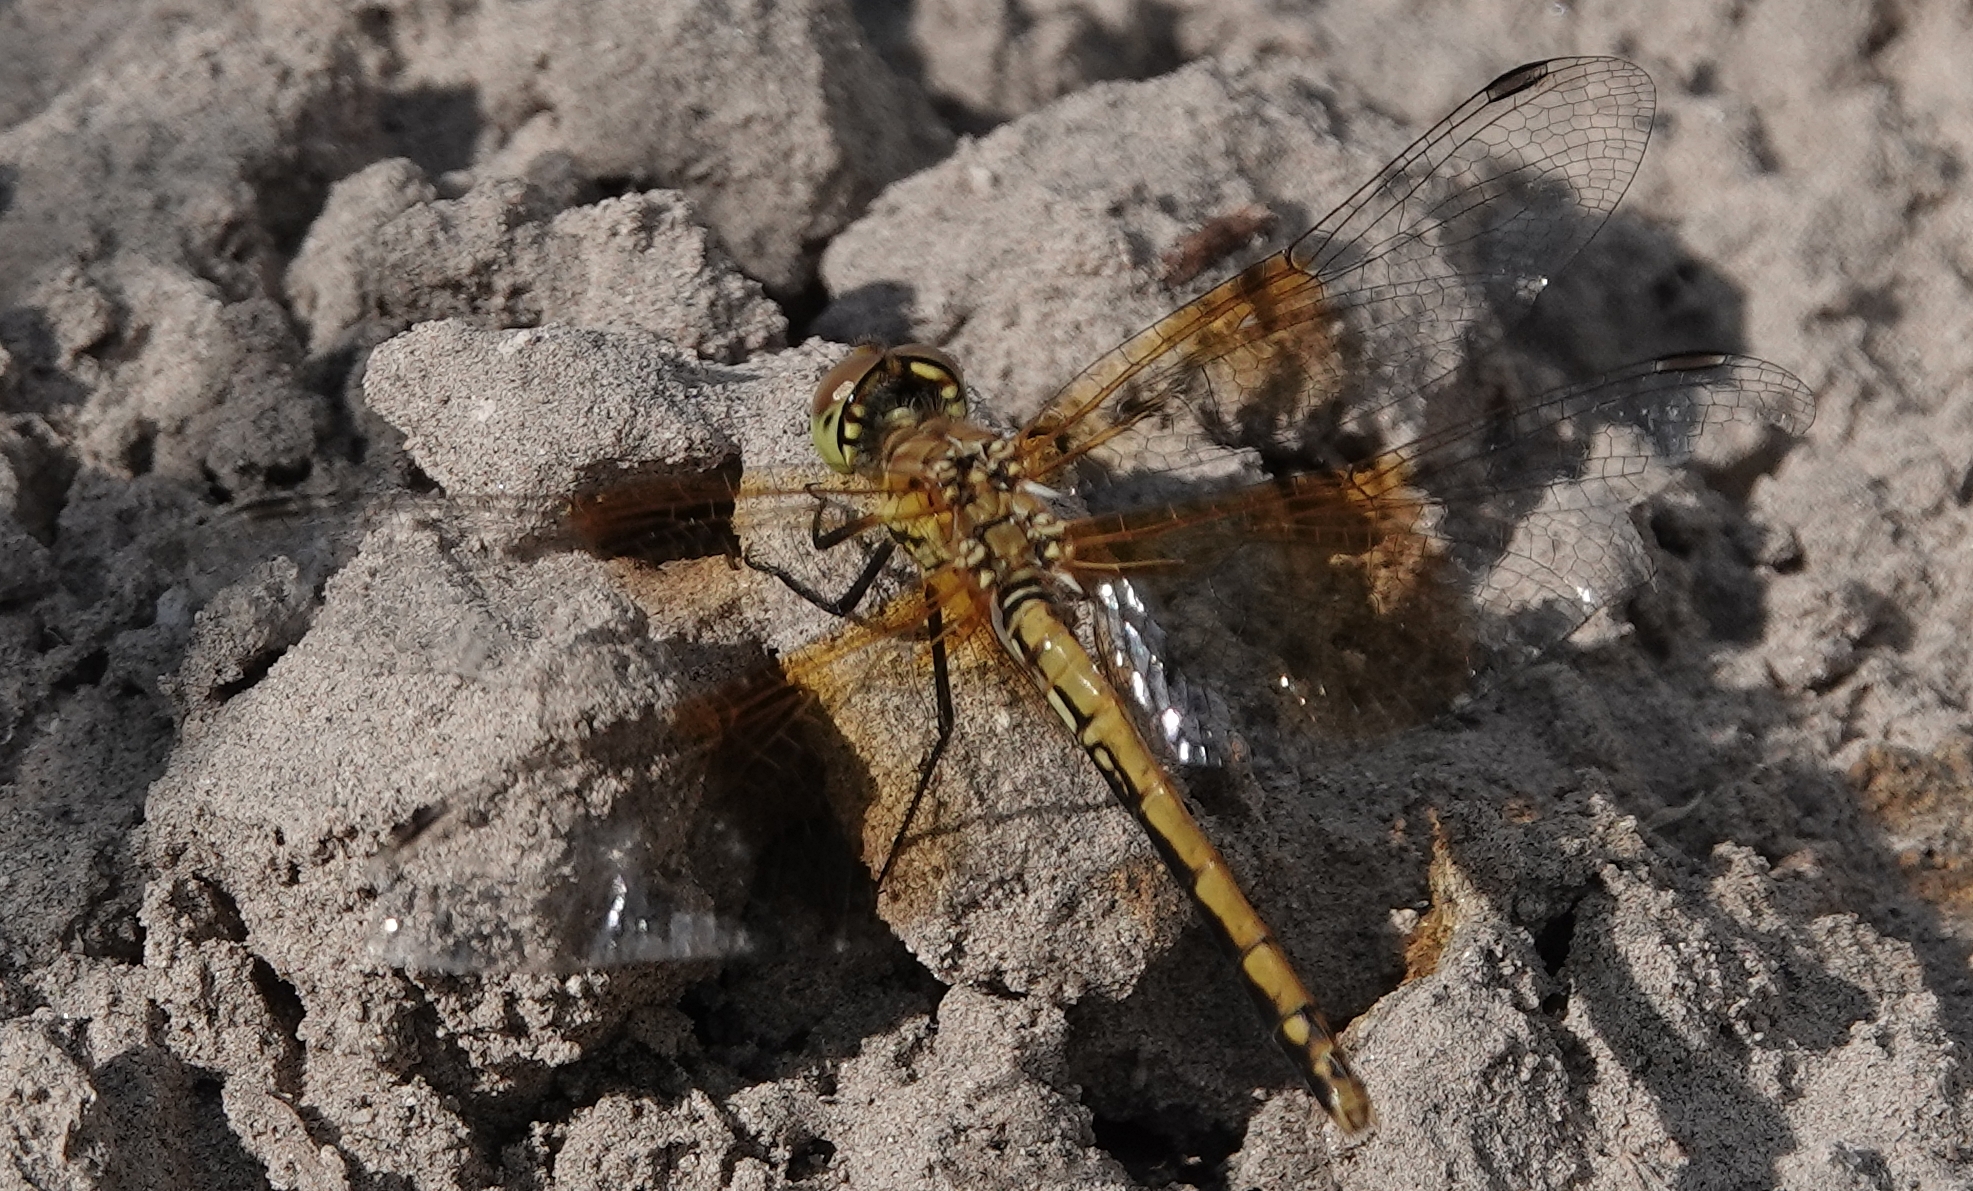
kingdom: Animalia
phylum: Arthropoda
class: Insecta
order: Odonata
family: Libellulidae
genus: Sympetrum
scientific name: Sympetrum semicinctum
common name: Band-winged meadowhawk
